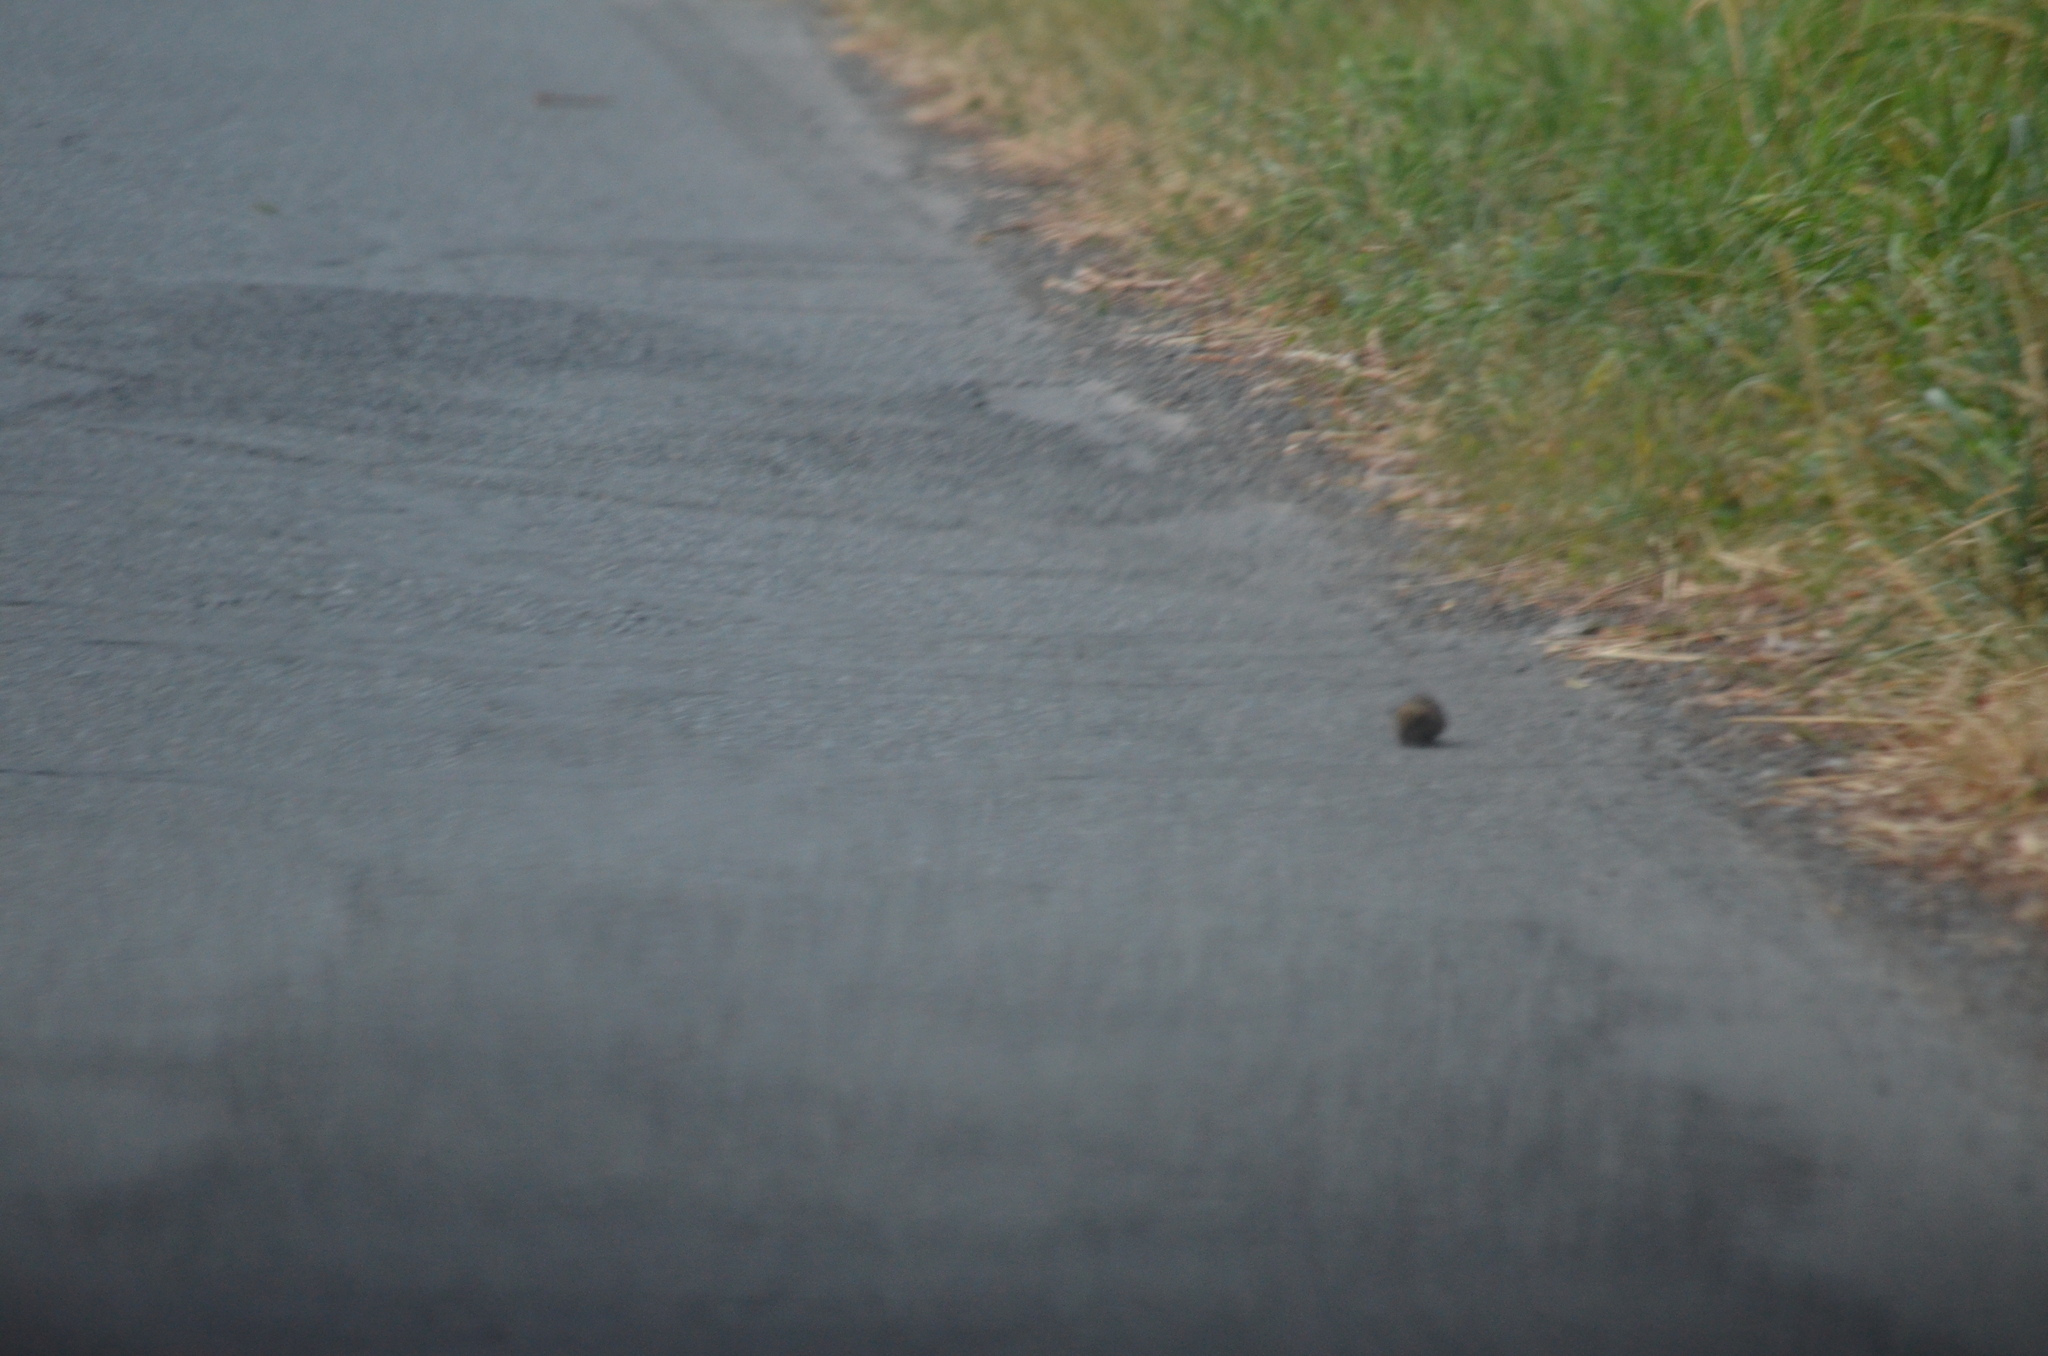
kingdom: Animalia
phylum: Chordata
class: Mammalia
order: Rodentia
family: Cricetidae
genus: Peromyscus
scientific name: Peromyscus maniculatus
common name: Deer mouse
